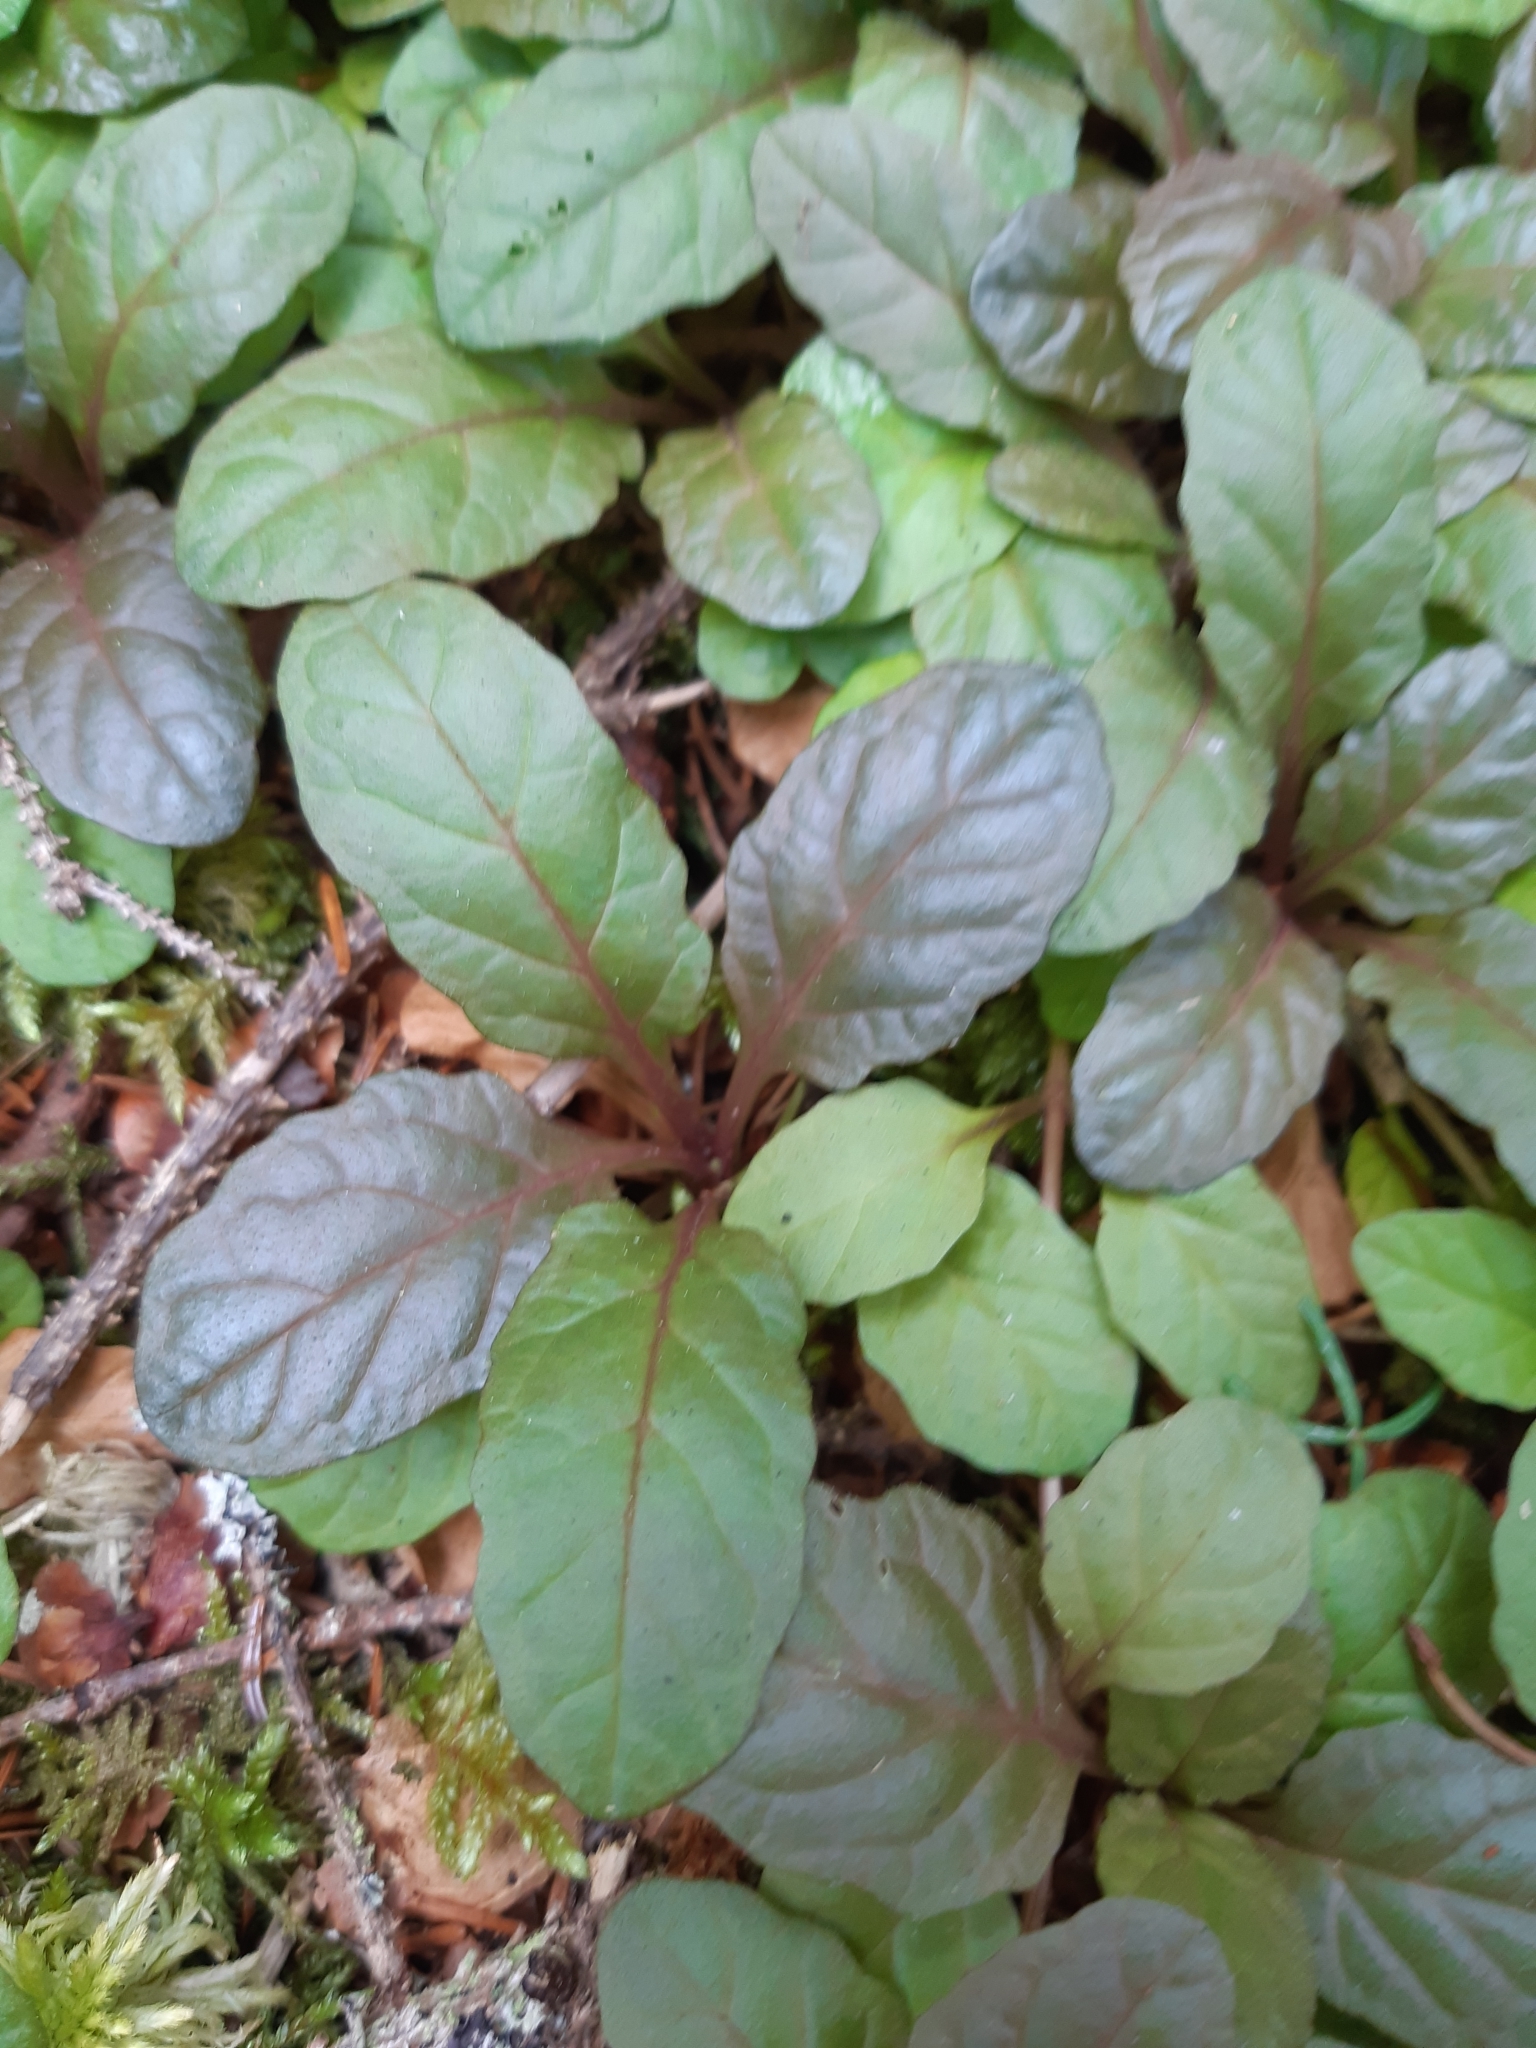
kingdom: Plantae
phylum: Tracheophyta
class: Magnoliopsida
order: Lamiales
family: Lamiaceae
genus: Ajuga
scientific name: Ajuga reptans
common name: Bugle
